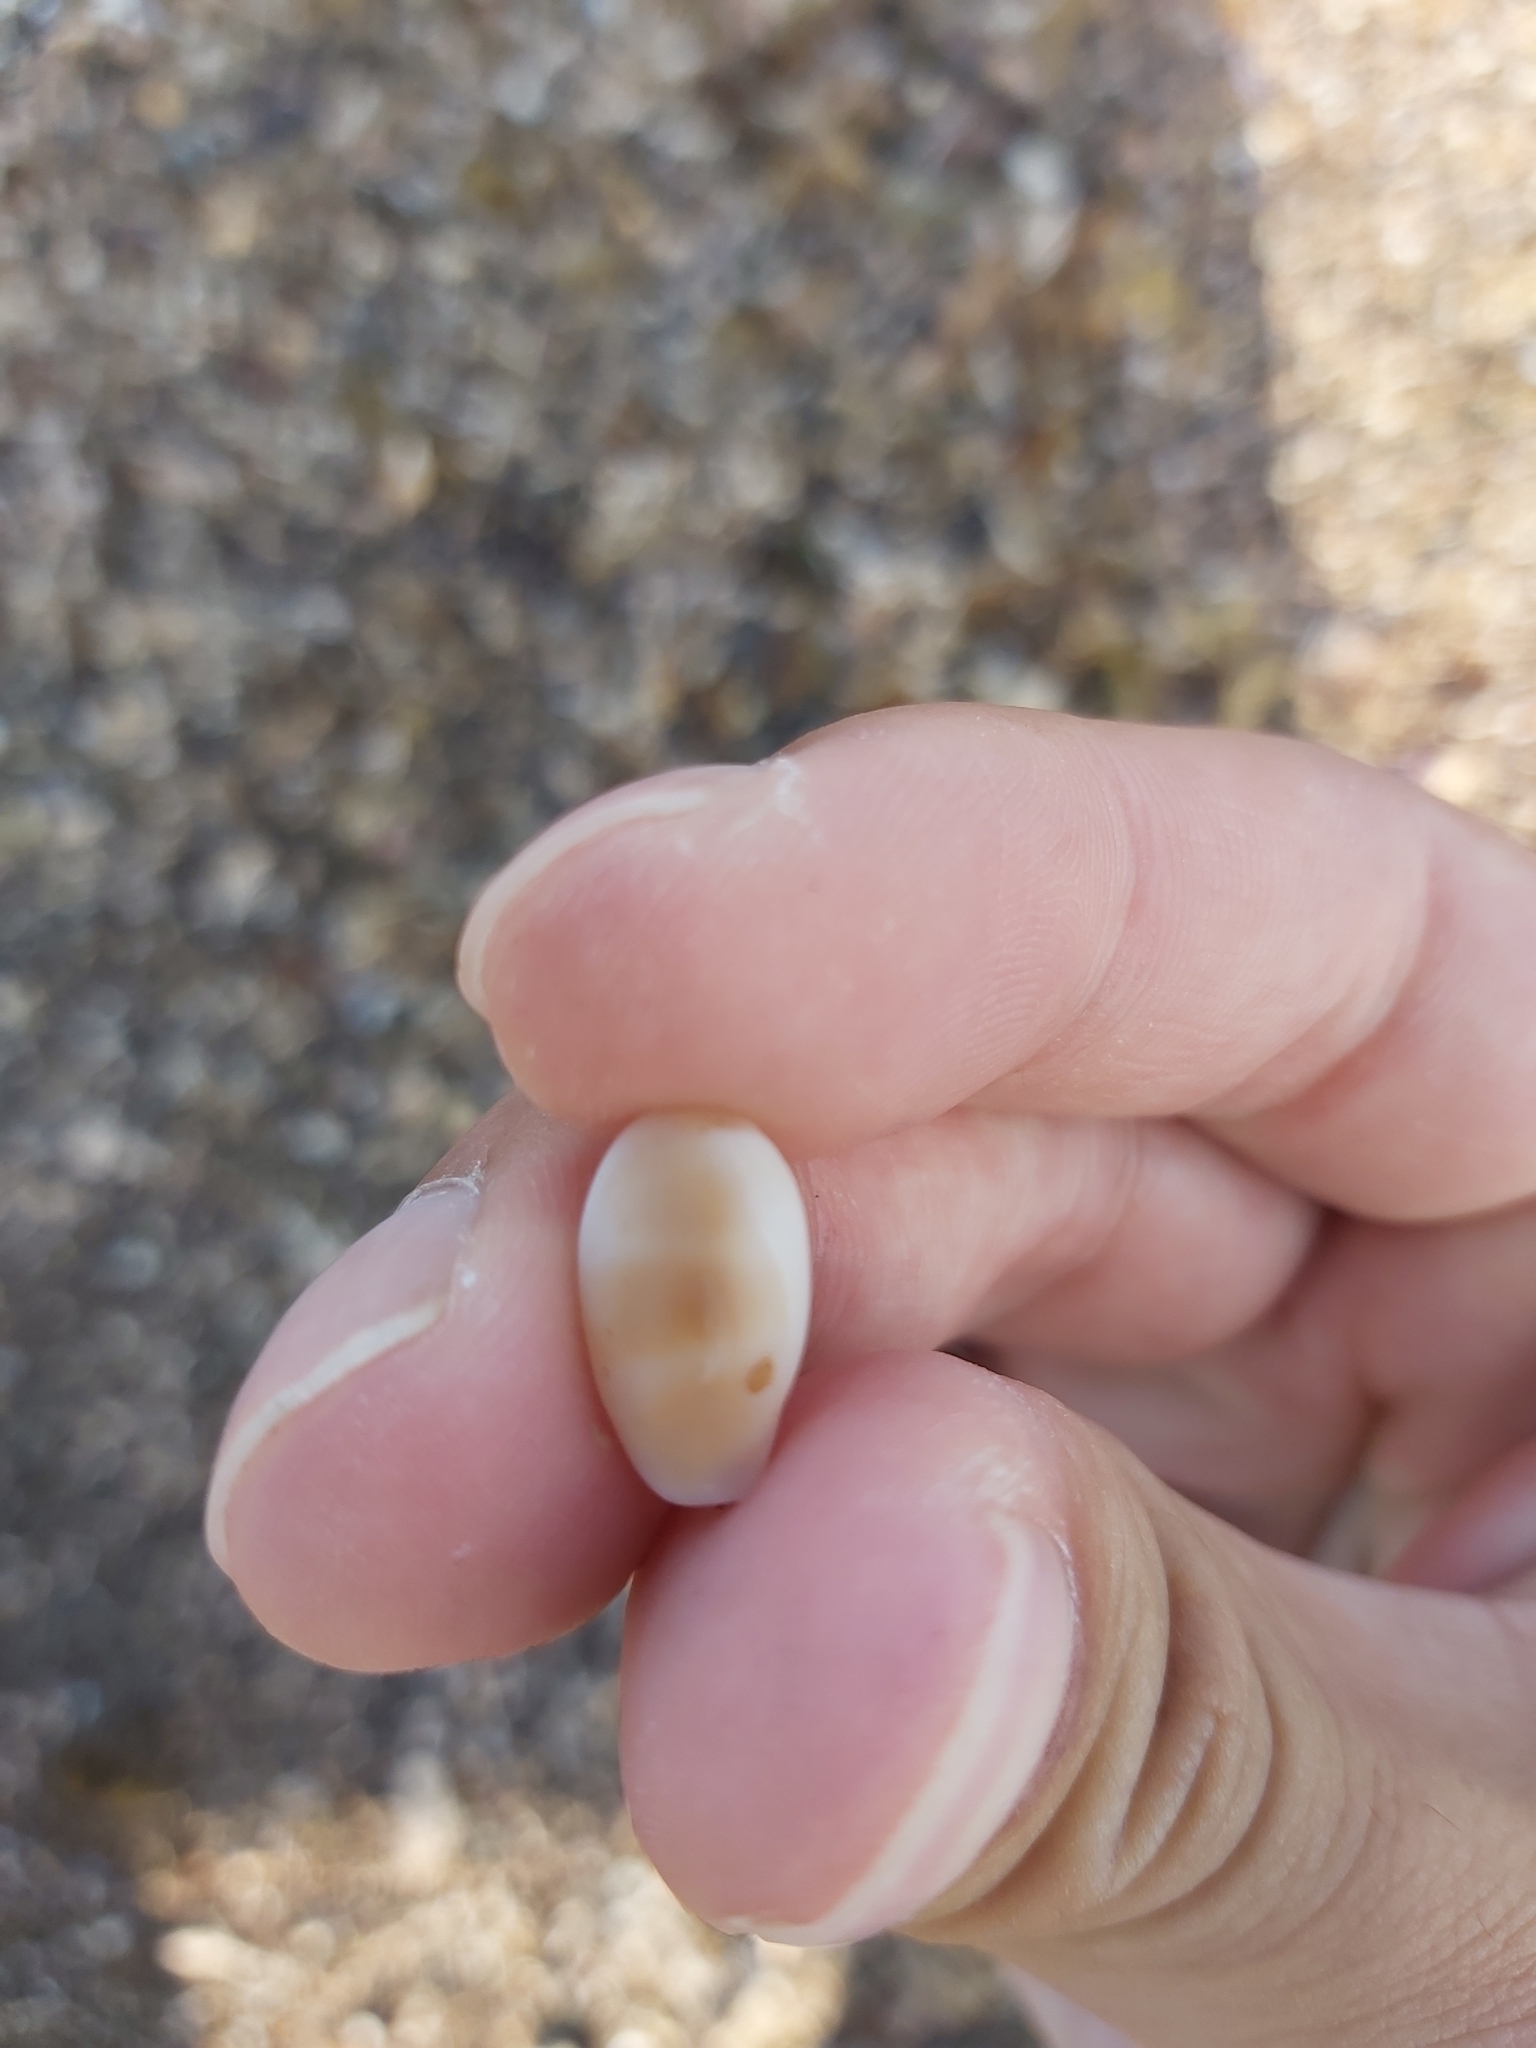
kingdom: Animalia
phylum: Mollusca
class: Gastropoda
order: Littorinimorpha
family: Cypraeidae
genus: Palmadusta
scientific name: Palmadusta clandestina
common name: Cowrie
